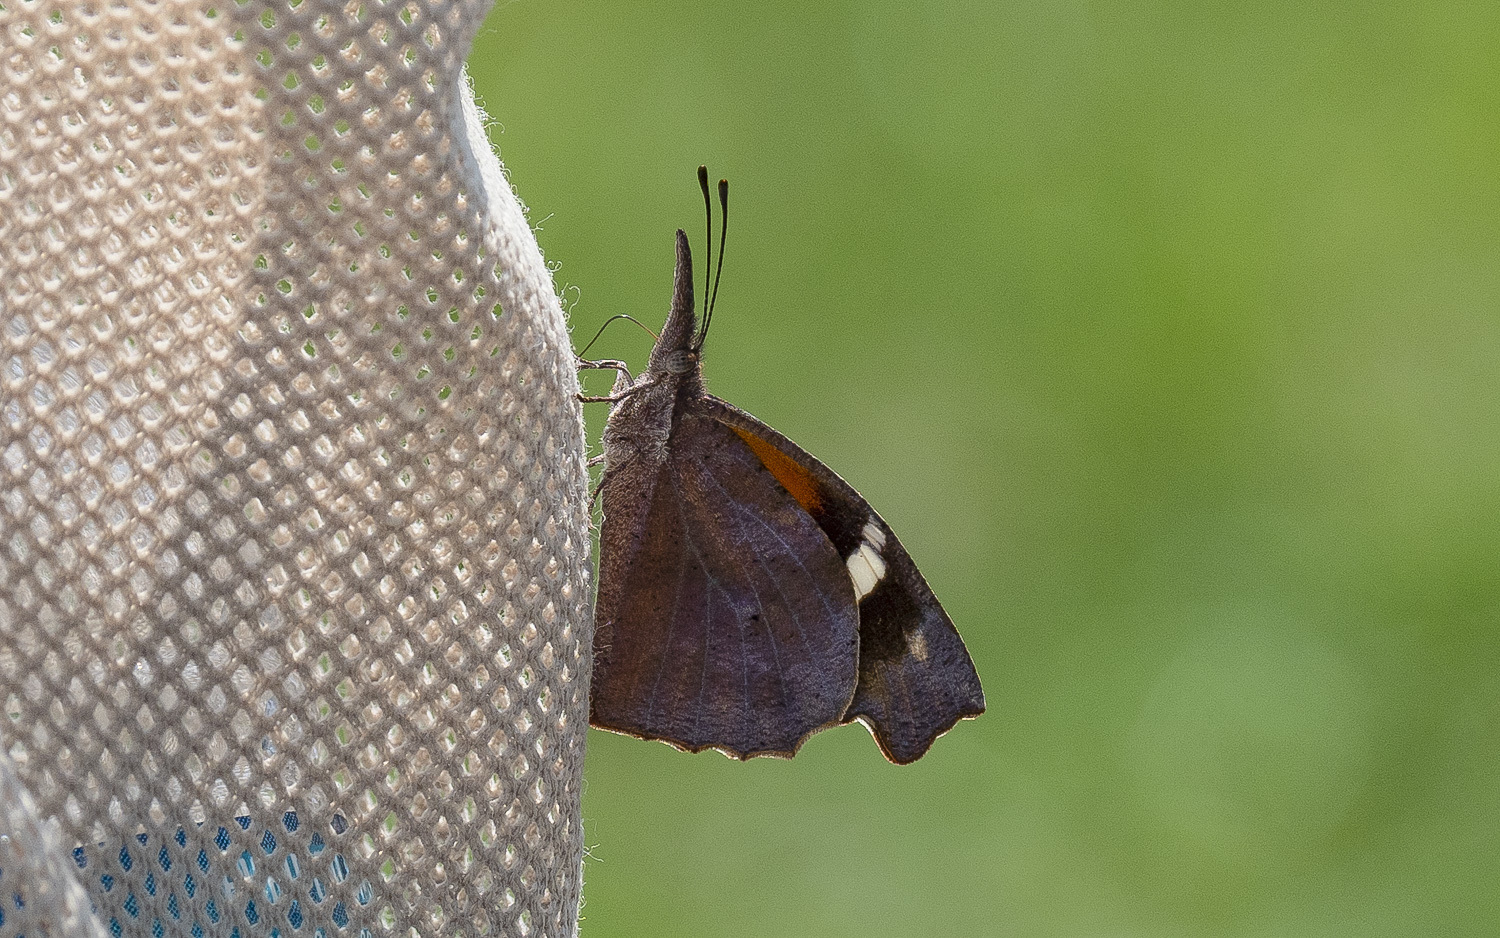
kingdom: Animalia
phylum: Arthropoda
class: Insecta
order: Lepidoptera
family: Nymphalidae
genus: Libytheana
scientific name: Libytheana carinenta
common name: American snout
